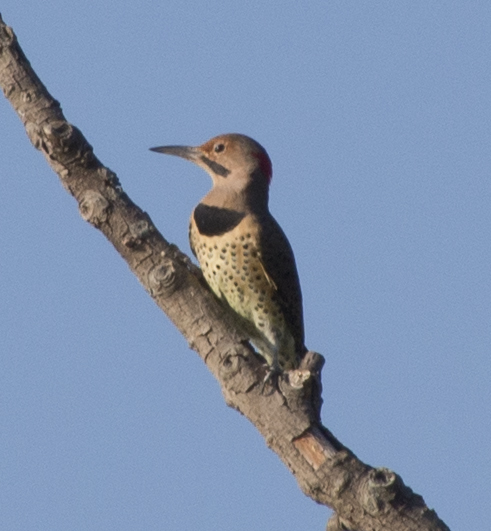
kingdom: Animalia
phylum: Chordata
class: Aves
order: Piciformes
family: Picidae
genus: Colaptes
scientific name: Colaptes auratus
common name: Northern flicker
